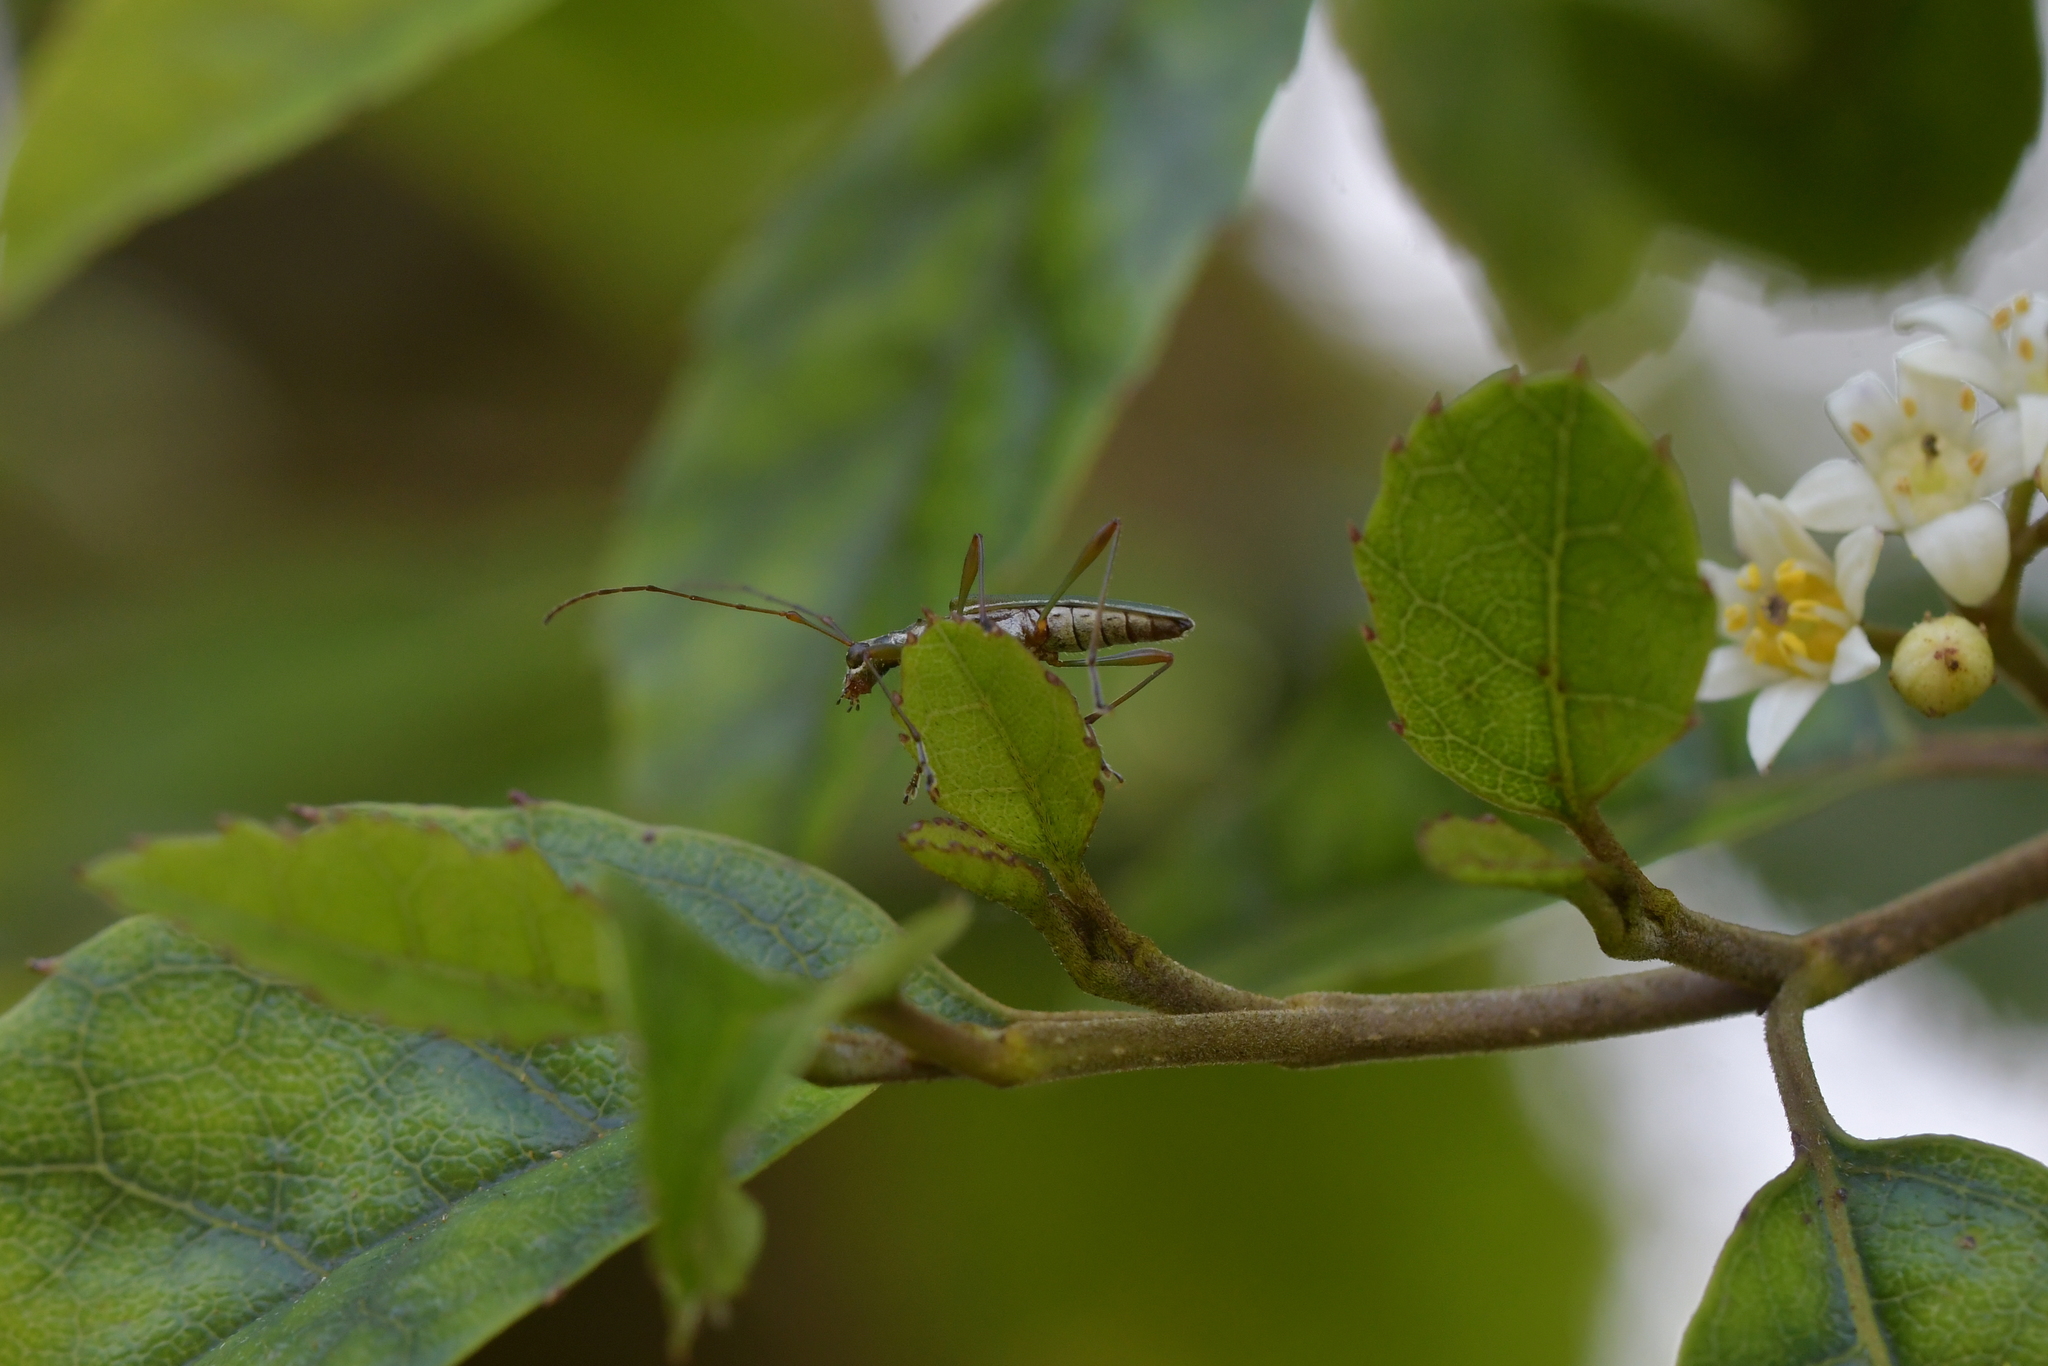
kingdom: Animalia
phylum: Arthropoda
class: Insecta
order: Coleoptera
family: Cerambycidae
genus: Calliprason
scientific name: Calliprason sinclairi
